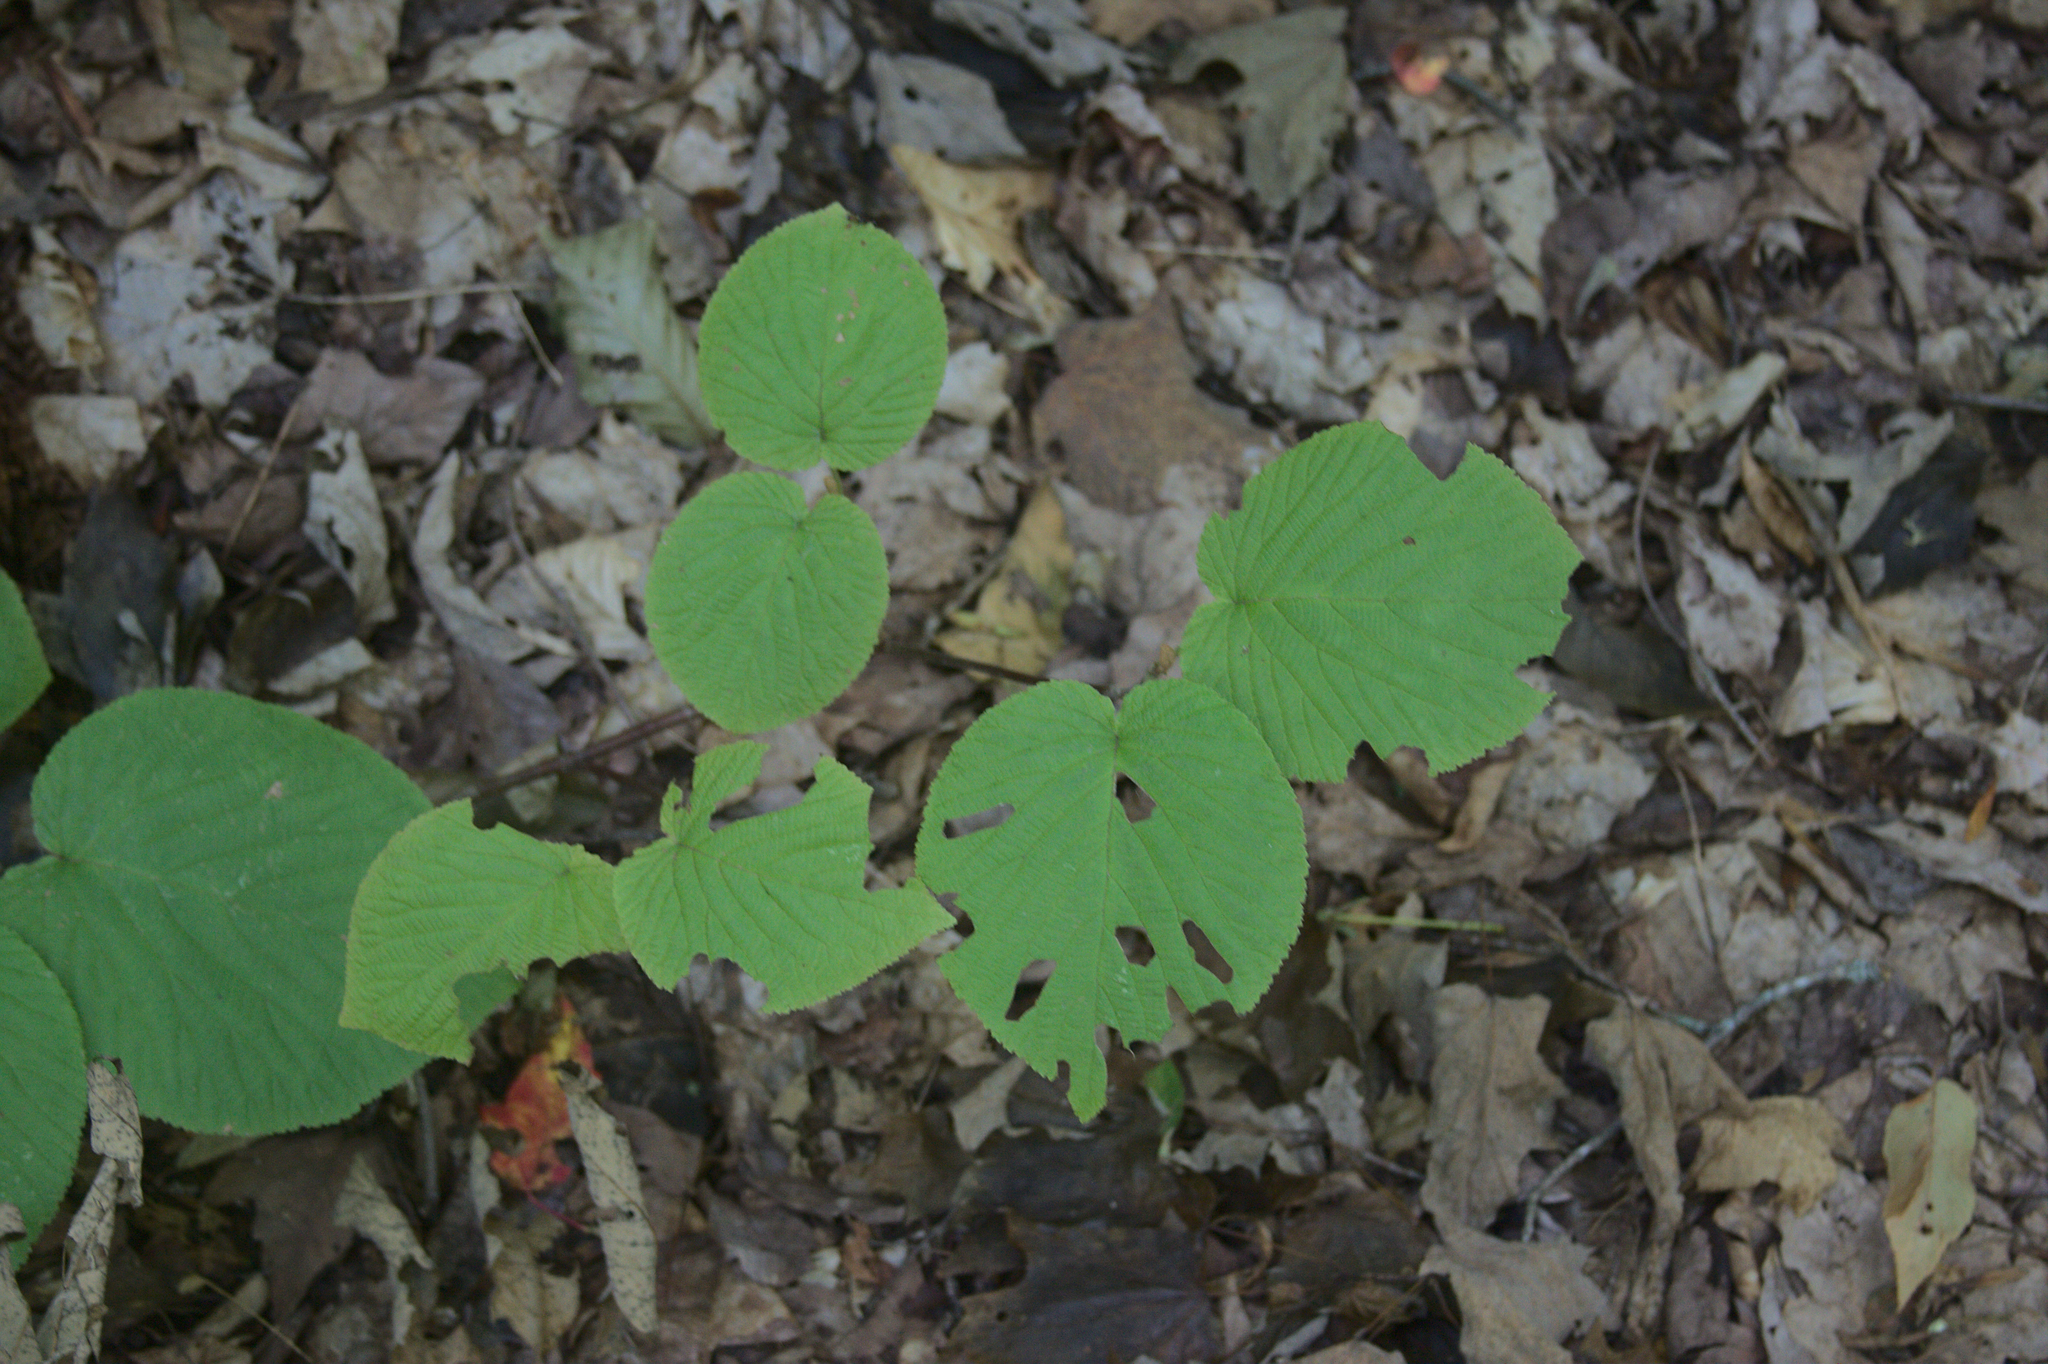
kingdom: Plantae
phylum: Tracheophyta
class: Magnoliopsida
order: Dipsacales
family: Viburnaceae
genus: Viburnum
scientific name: Viburnum lantanoides
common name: Hobblebush
